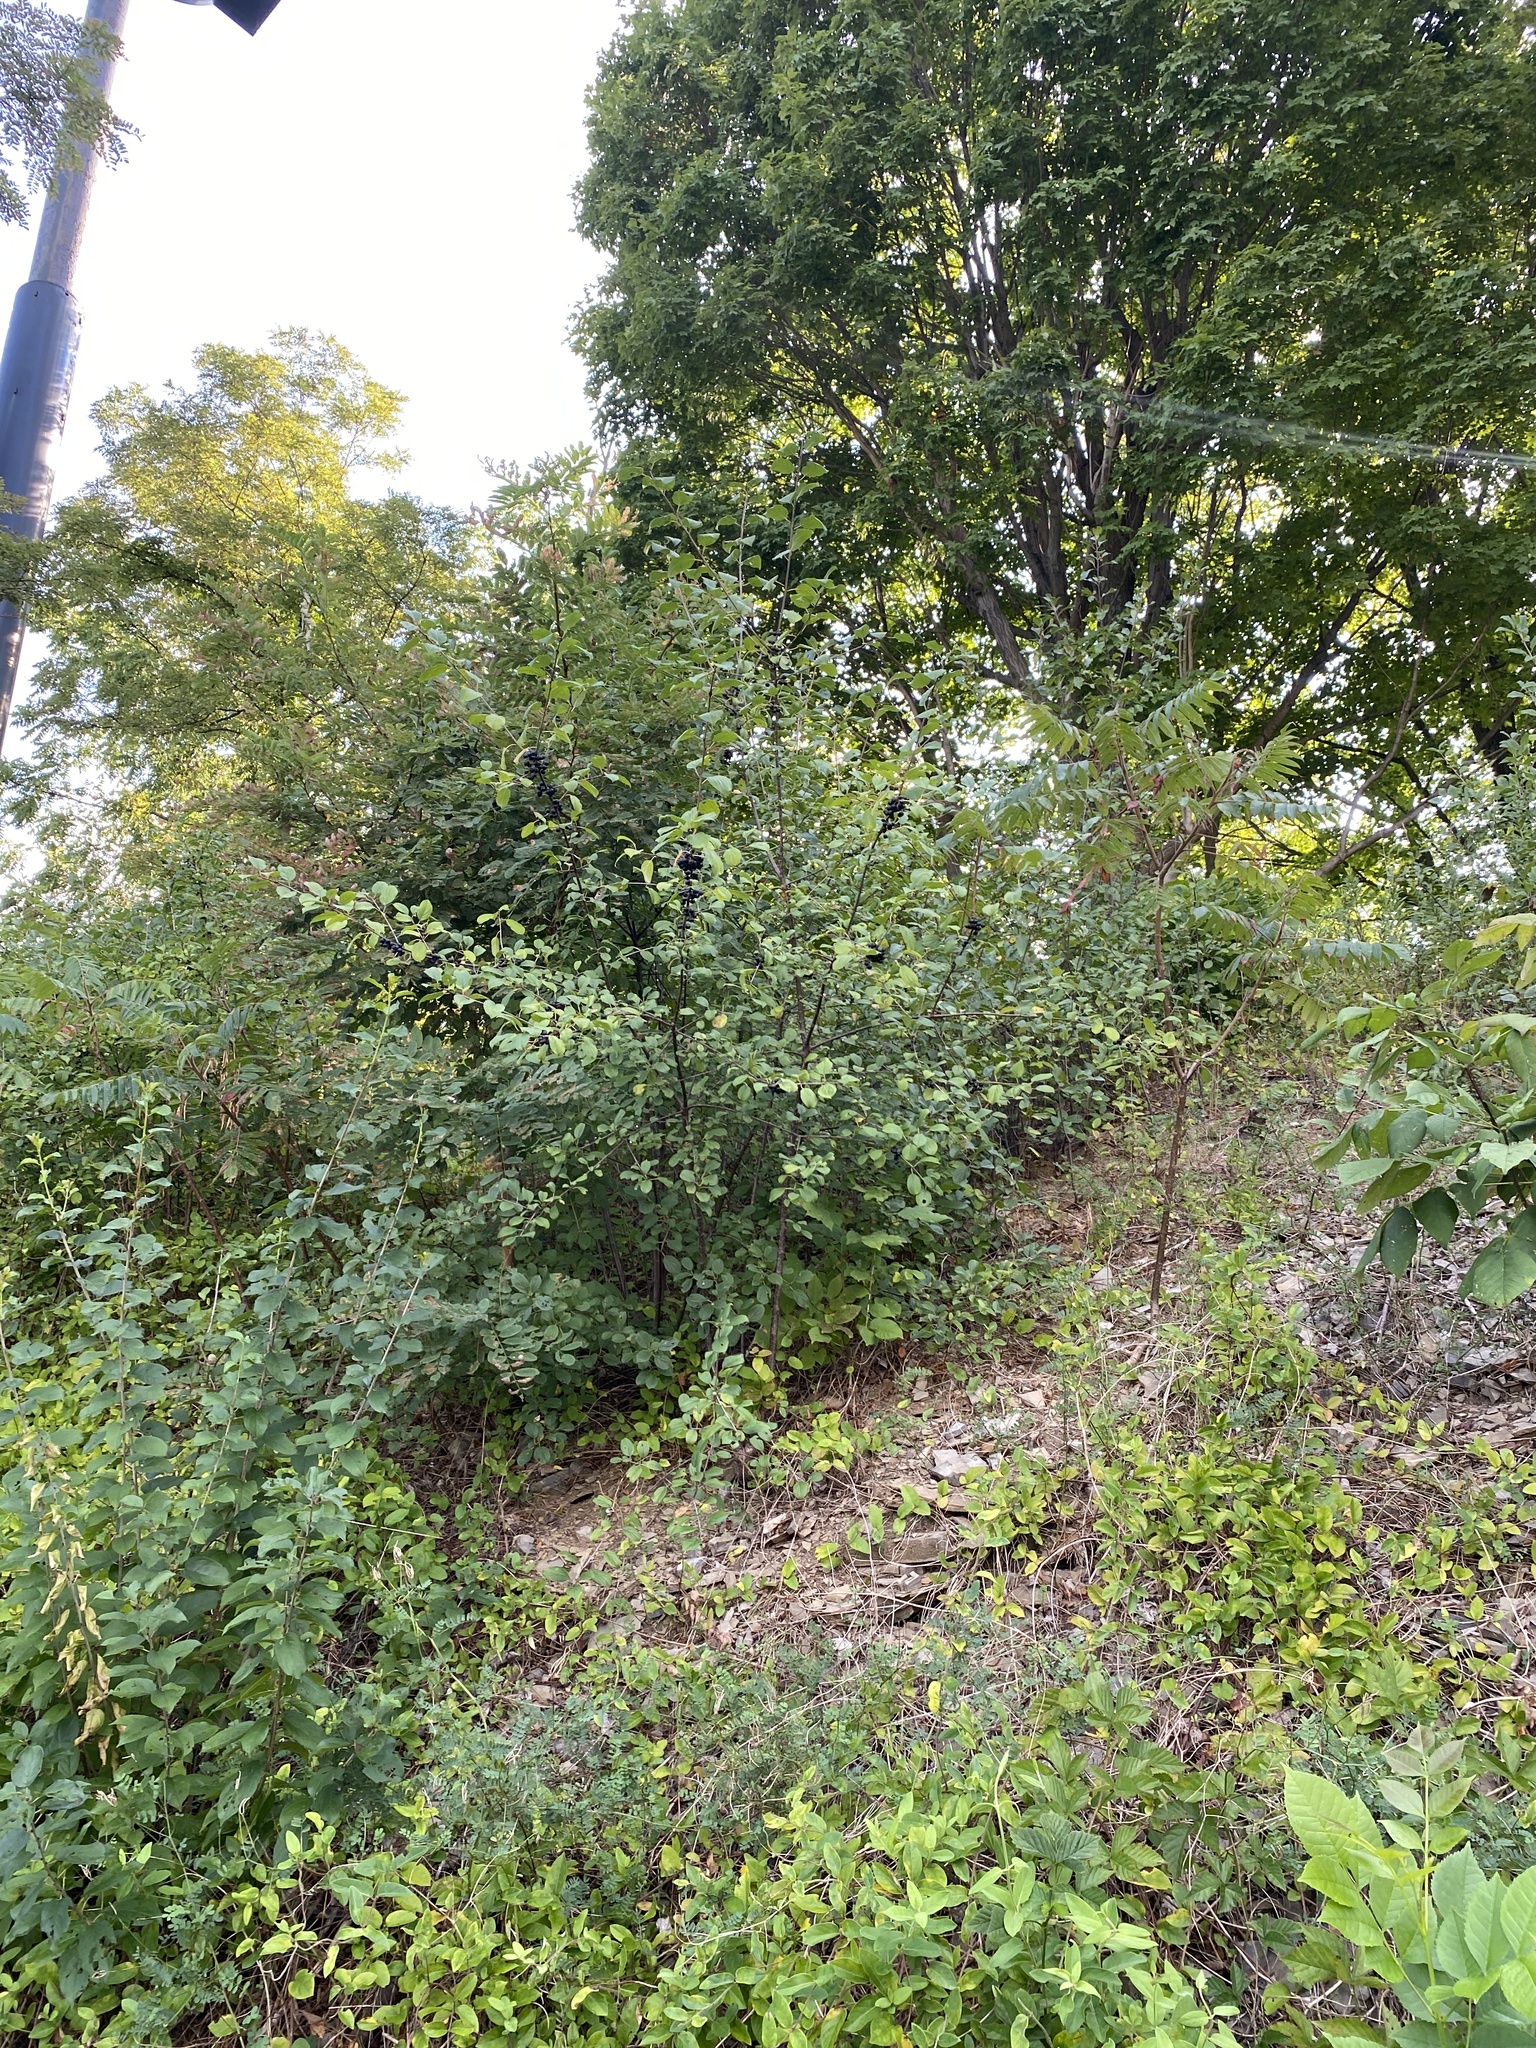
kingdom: Plantae
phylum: Tracheophyta
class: Magnoliopsida
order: Rosales
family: Rhamnaceae
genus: Rhamnus
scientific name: Rhamnus cathartica
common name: Common buckthorn
